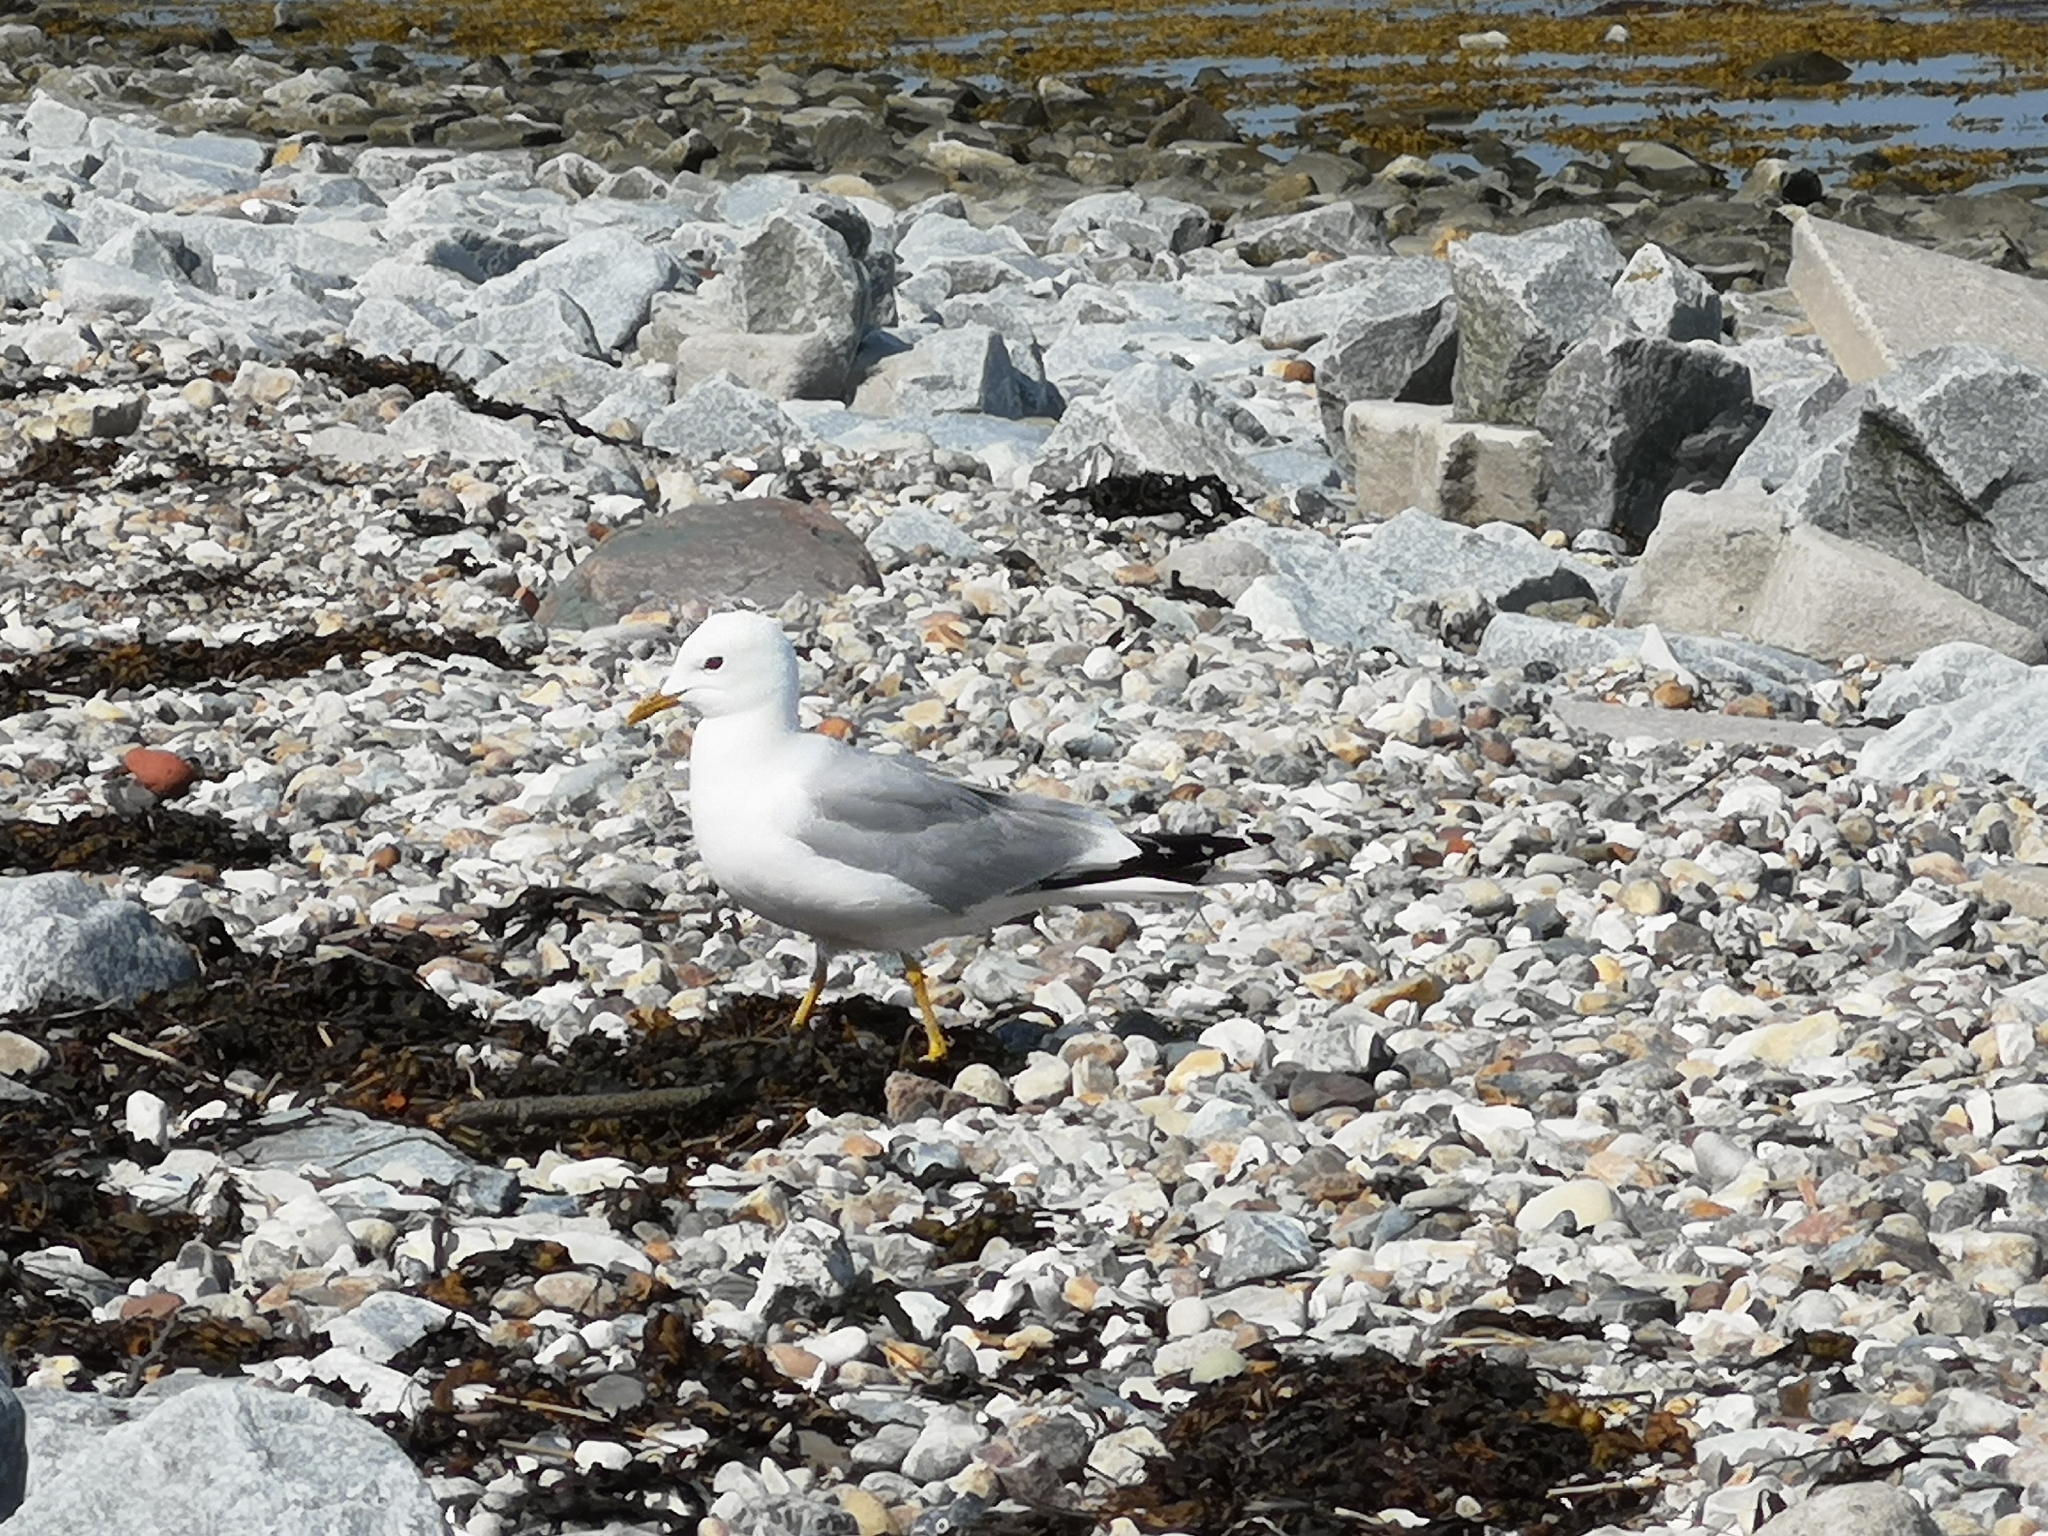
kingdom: Animalia
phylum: Chordata
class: Aves
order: Charadriiformes
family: Laridae
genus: Larus
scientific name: Larus canus
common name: Mew gull
